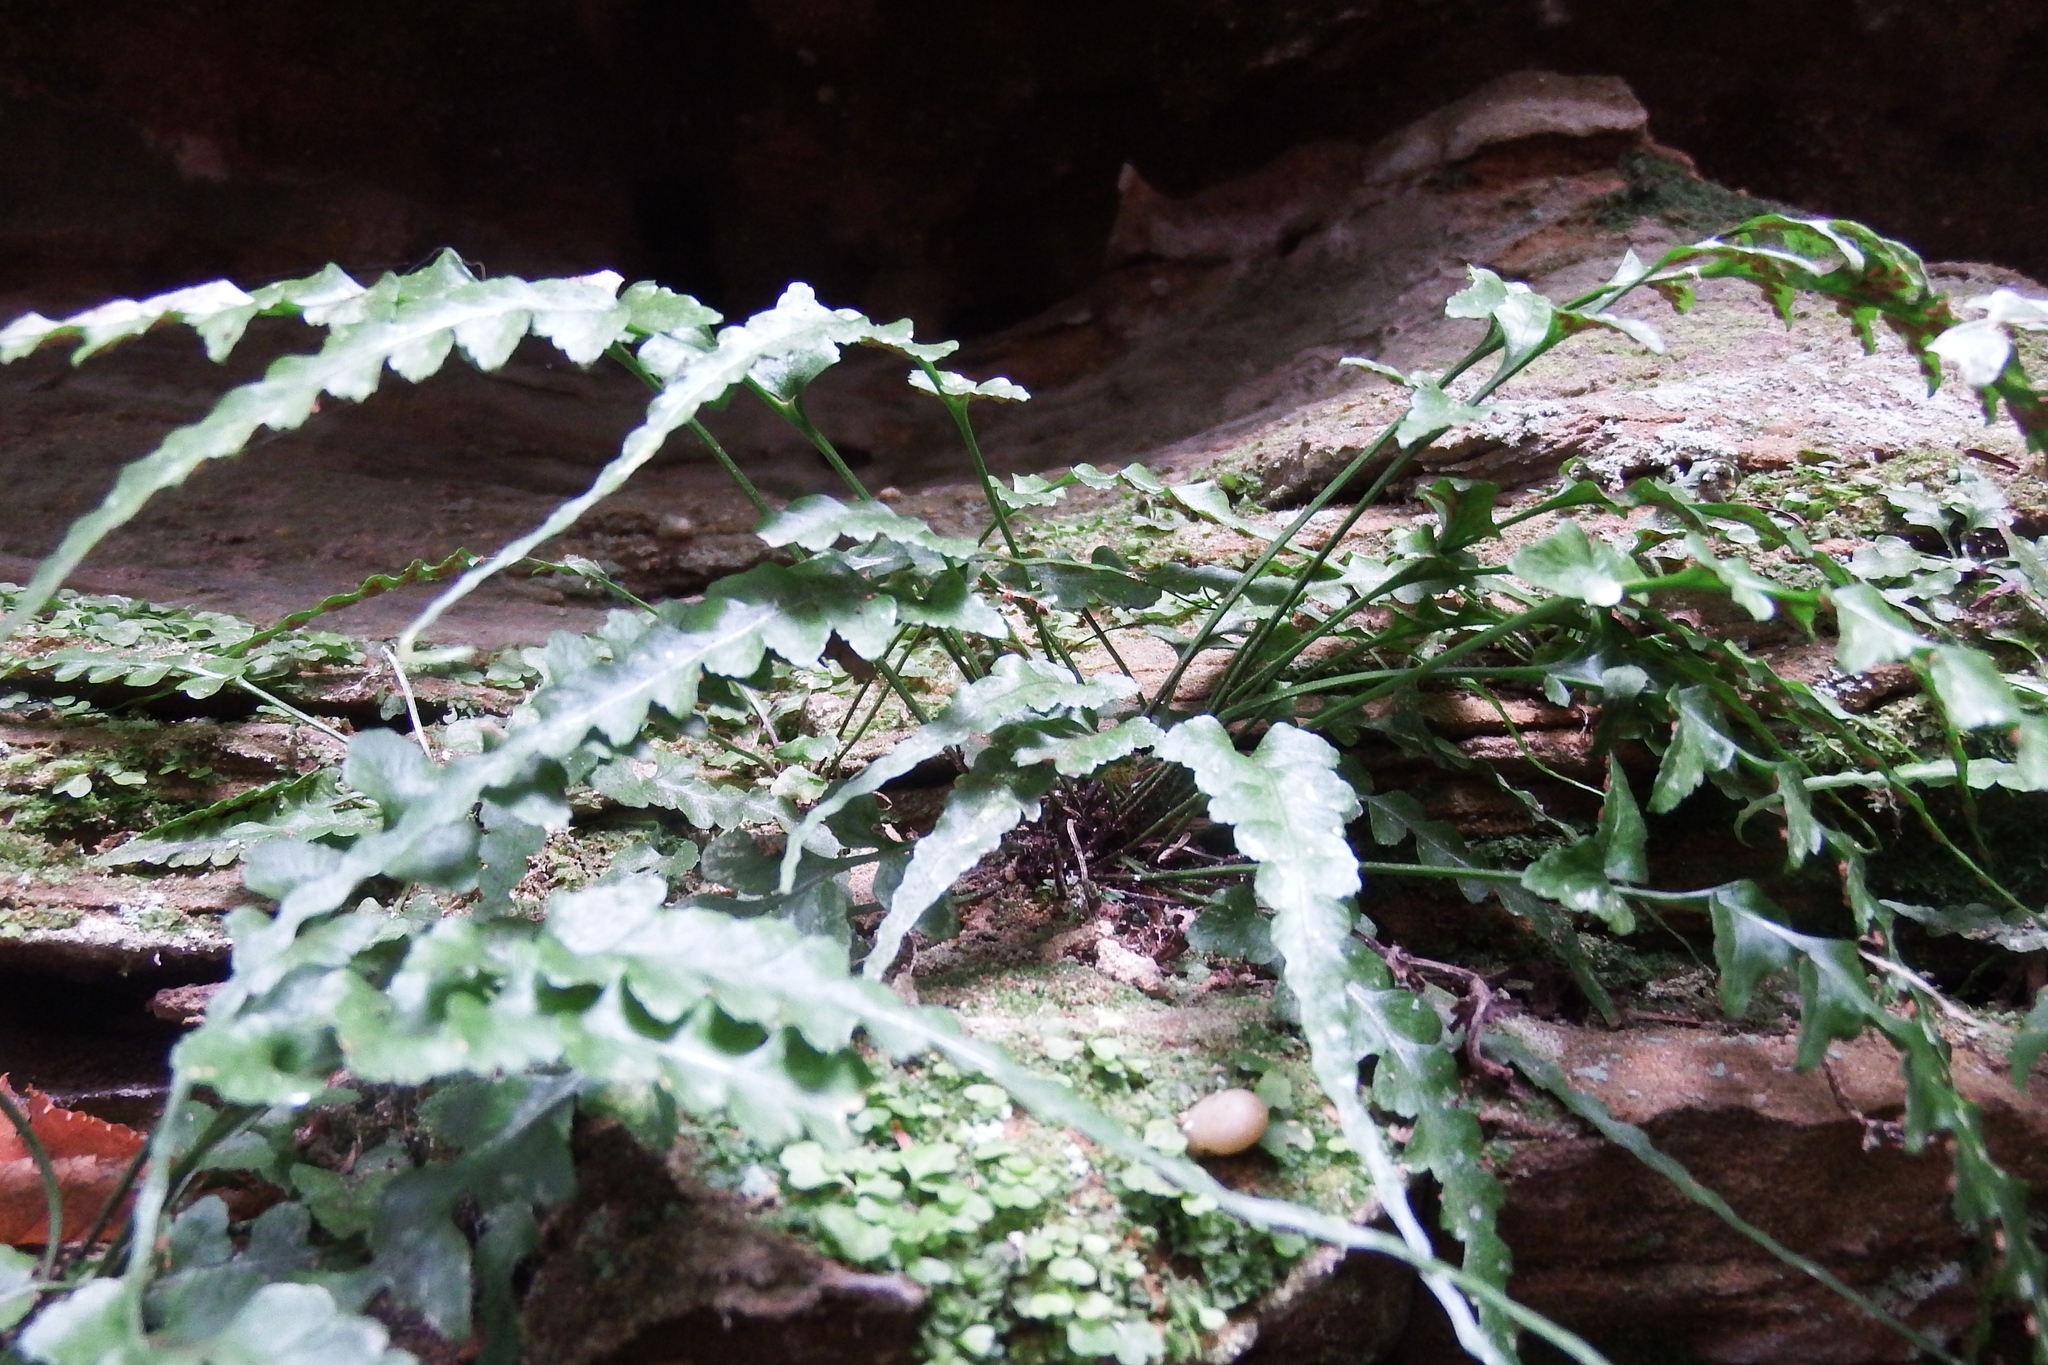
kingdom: Plantae
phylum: Tracheophyta
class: Polypodiopsida
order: Polypodiales
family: Aspleniaceae
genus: Asplenium
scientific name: Asplenium pinnatifidum
